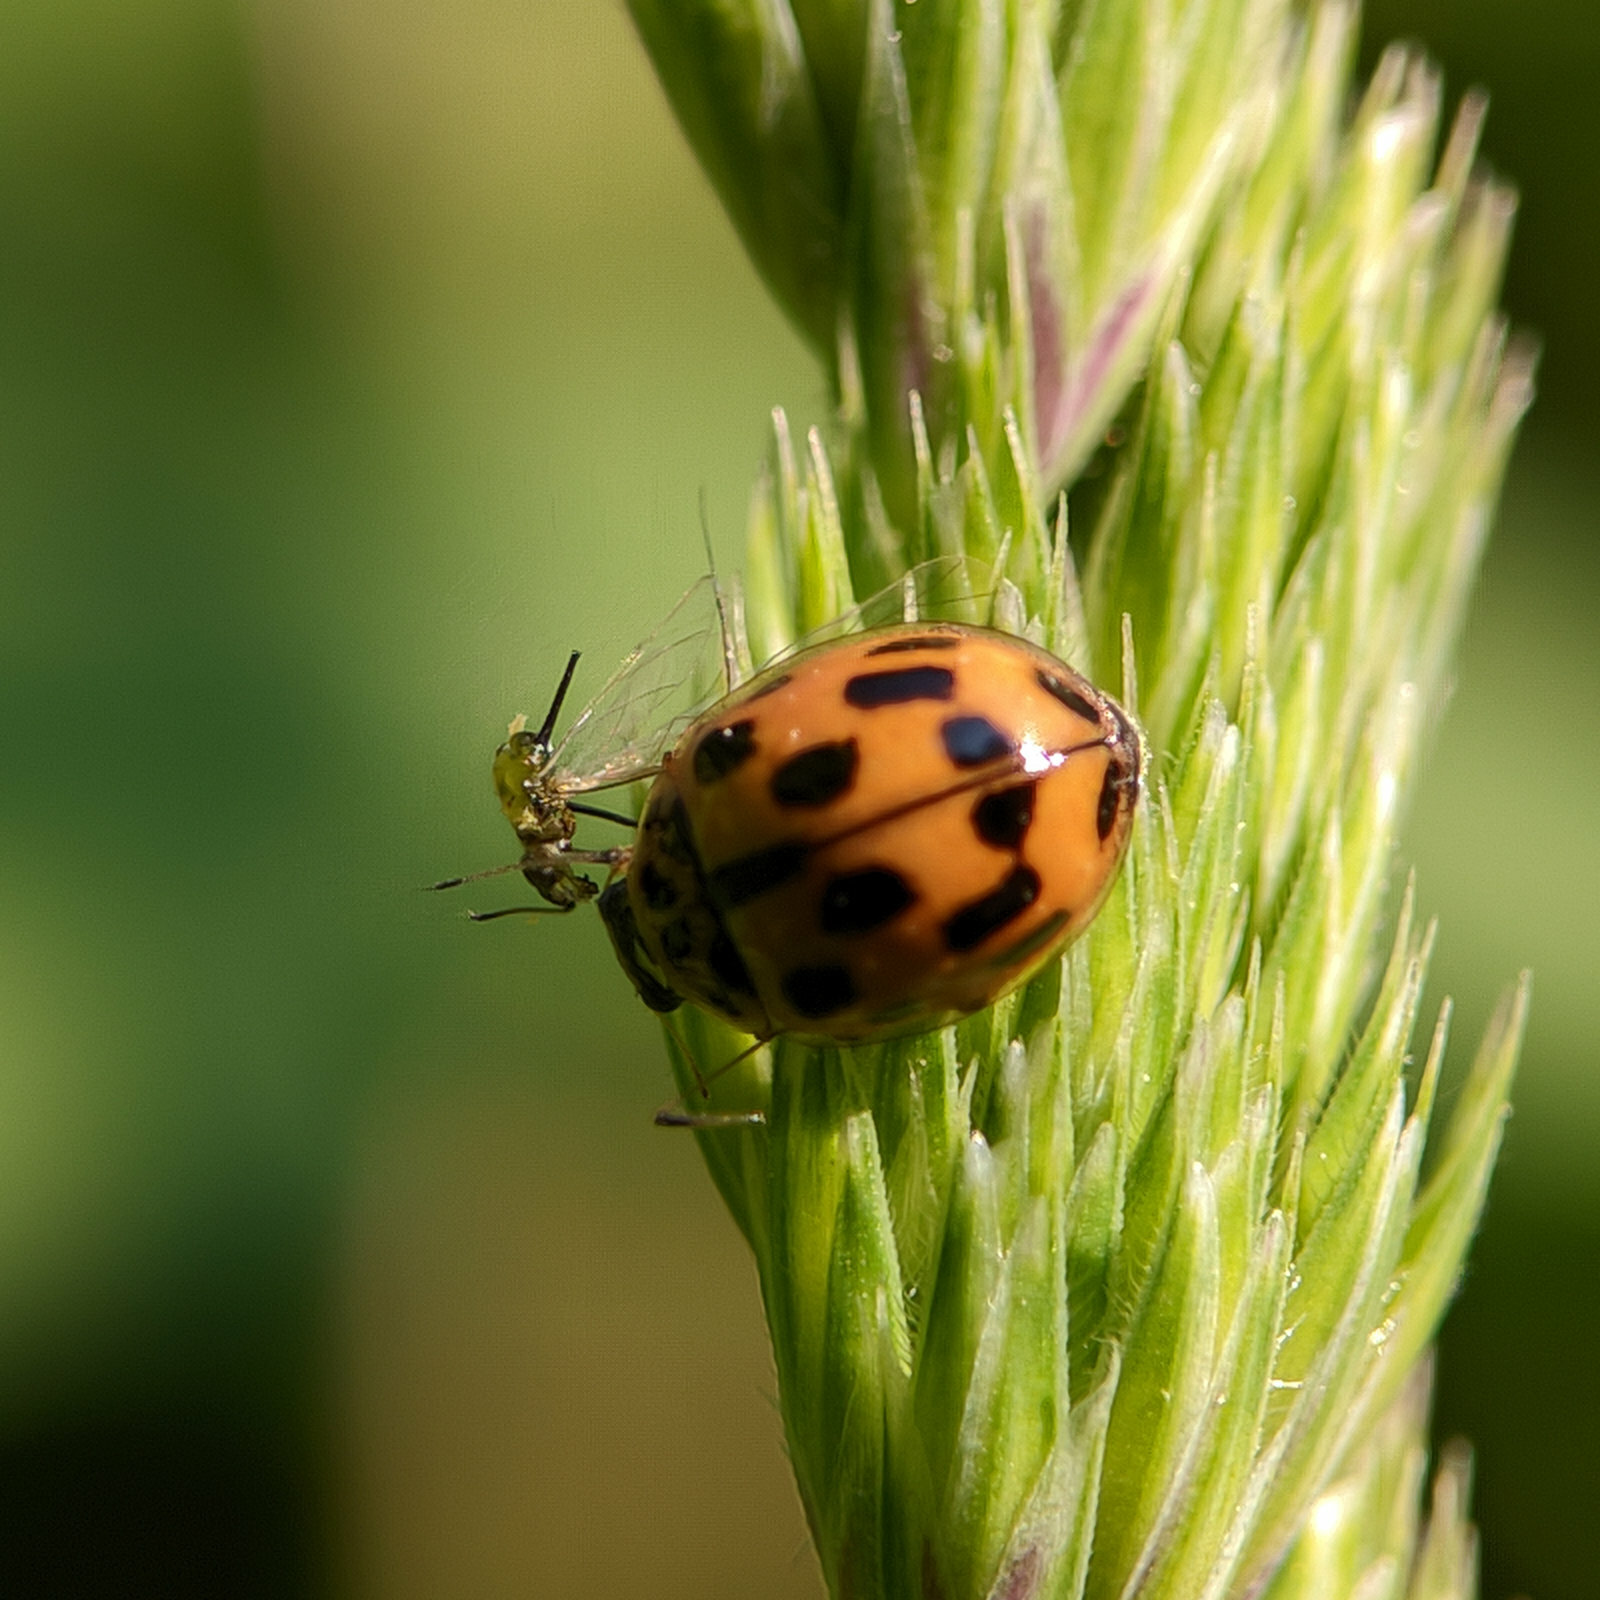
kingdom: Animalia
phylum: Arthropoda
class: Insecta
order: Coleoptera
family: Coccinellidae
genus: Propylaea
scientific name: Propylaea quatuordecimpunctata
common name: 14-spotted ladybird beetle
